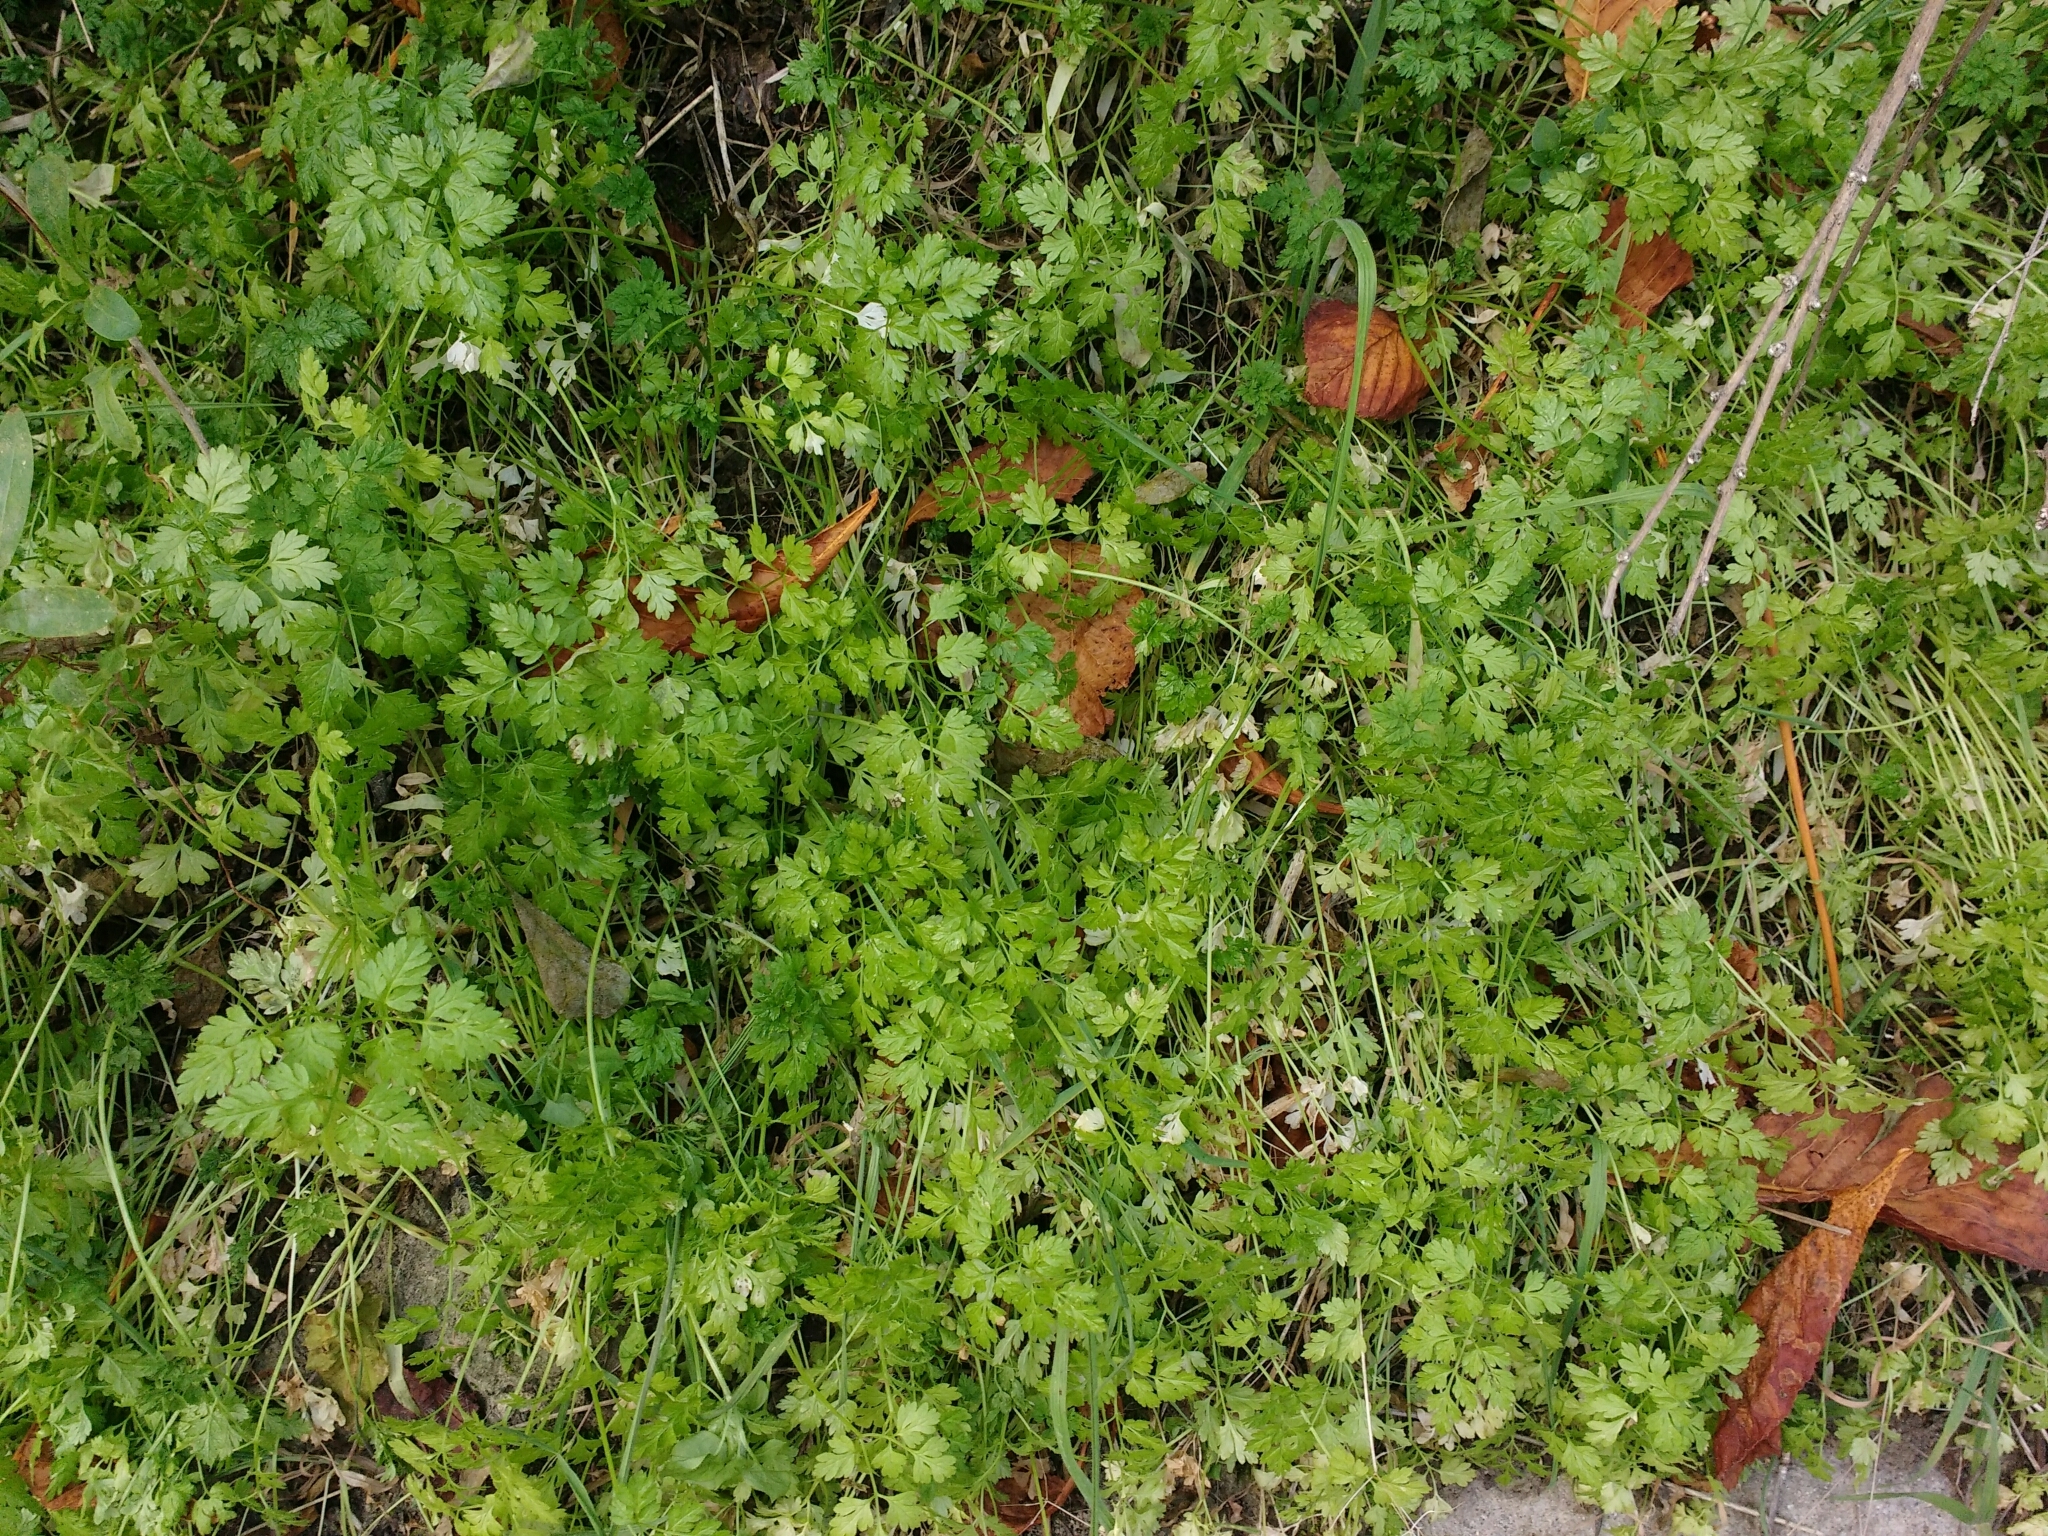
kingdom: Plantae
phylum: Tracheophyta
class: Magnoliopsida
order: Apiales
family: Apiaceae
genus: Anthriscus
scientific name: Anthriscus cerefolium
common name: Garden chervil
